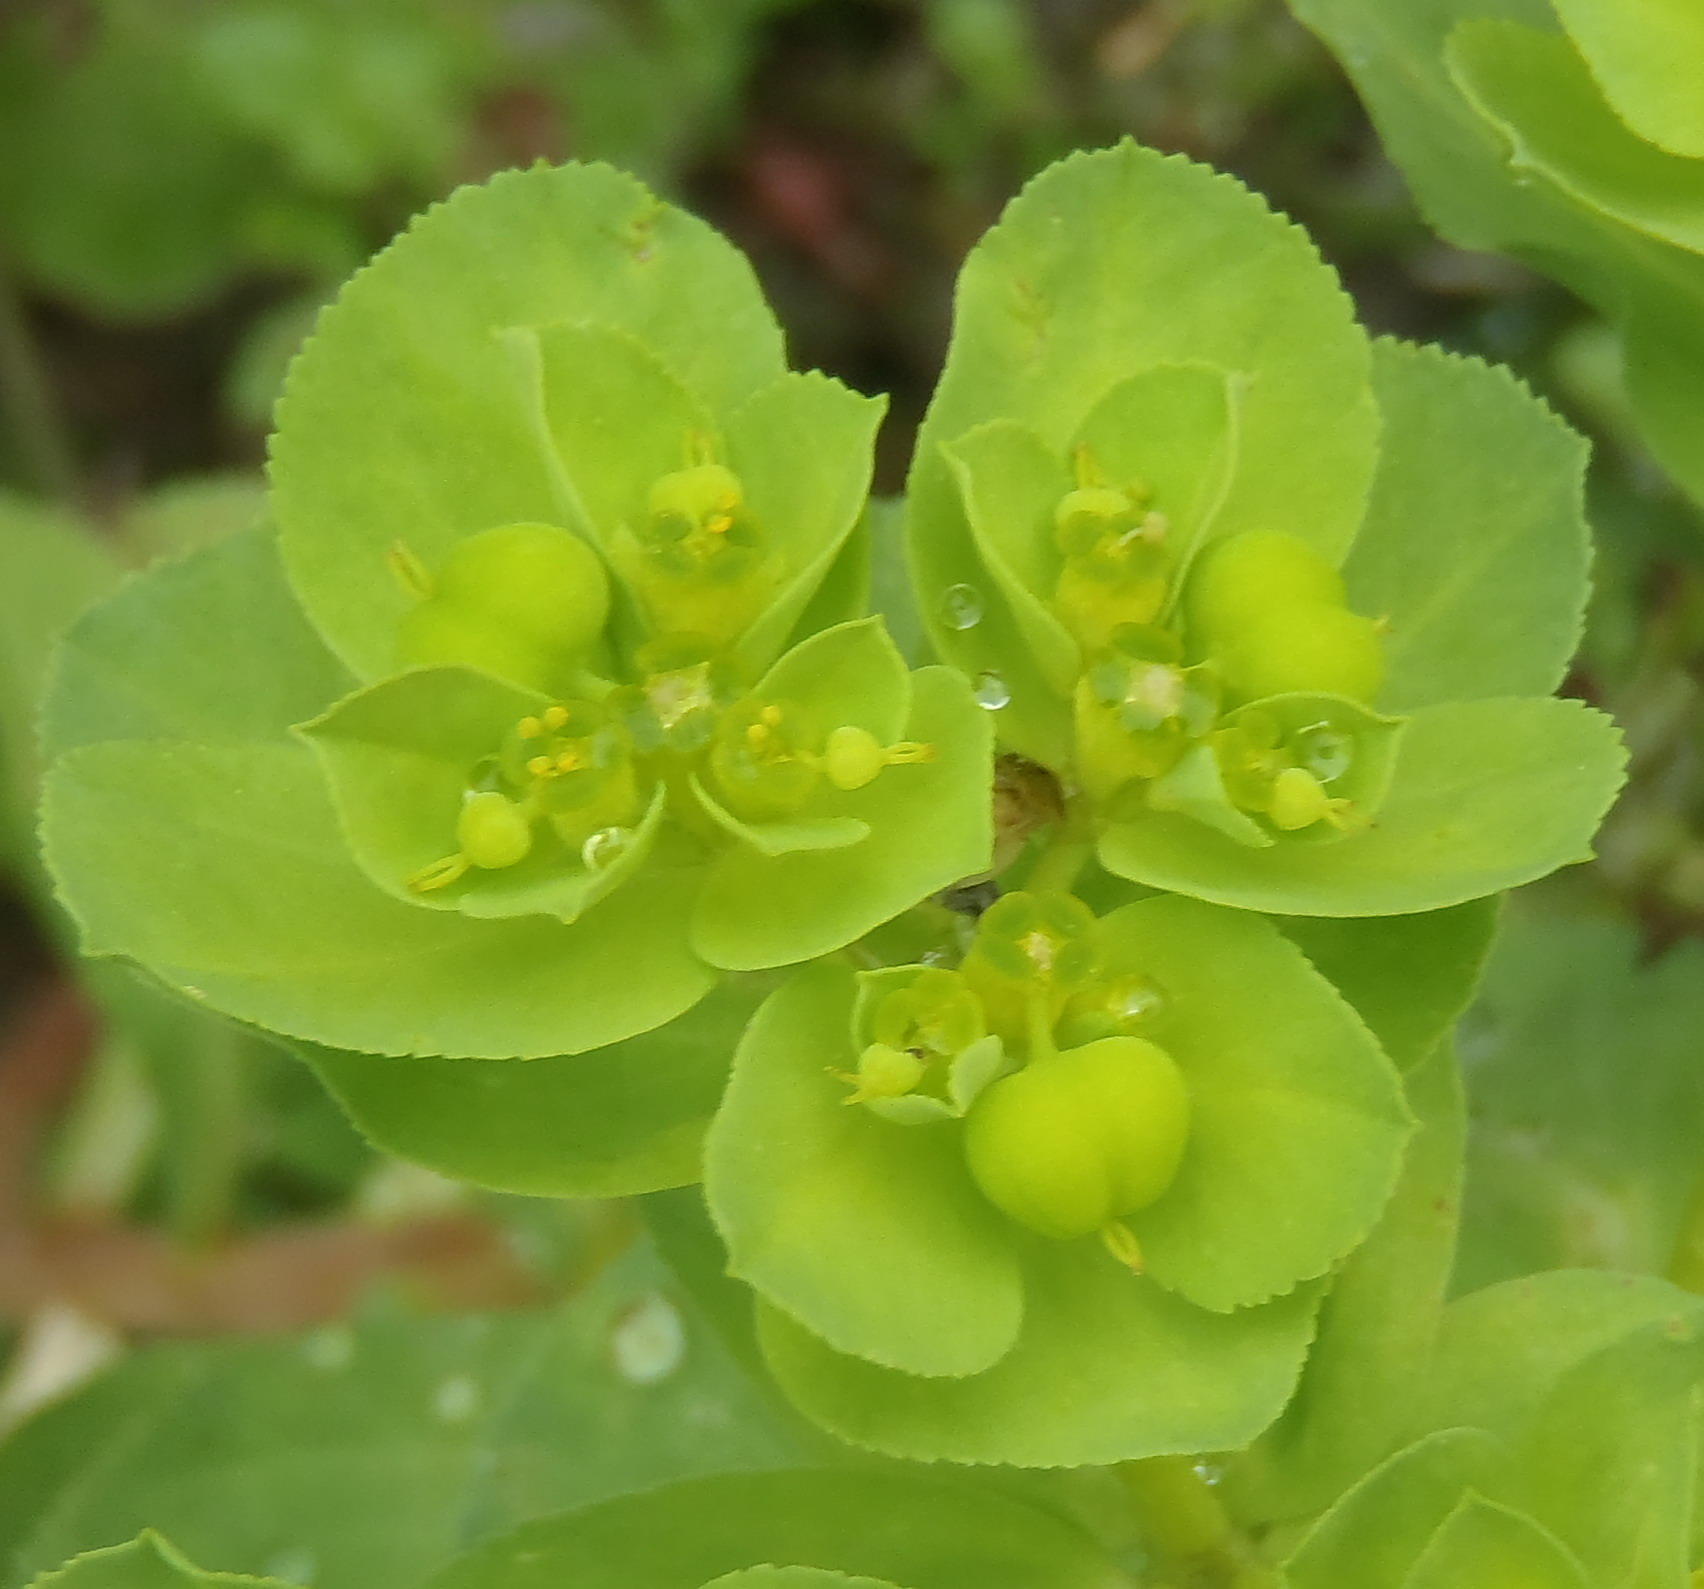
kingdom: Plantae
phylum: Tracheophyta
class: Magnoliopsida
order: Malpighiales
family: Euphorbiaceae
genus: Euphorbia
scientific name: Euphorbia helioscopia
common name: Sun spurge
